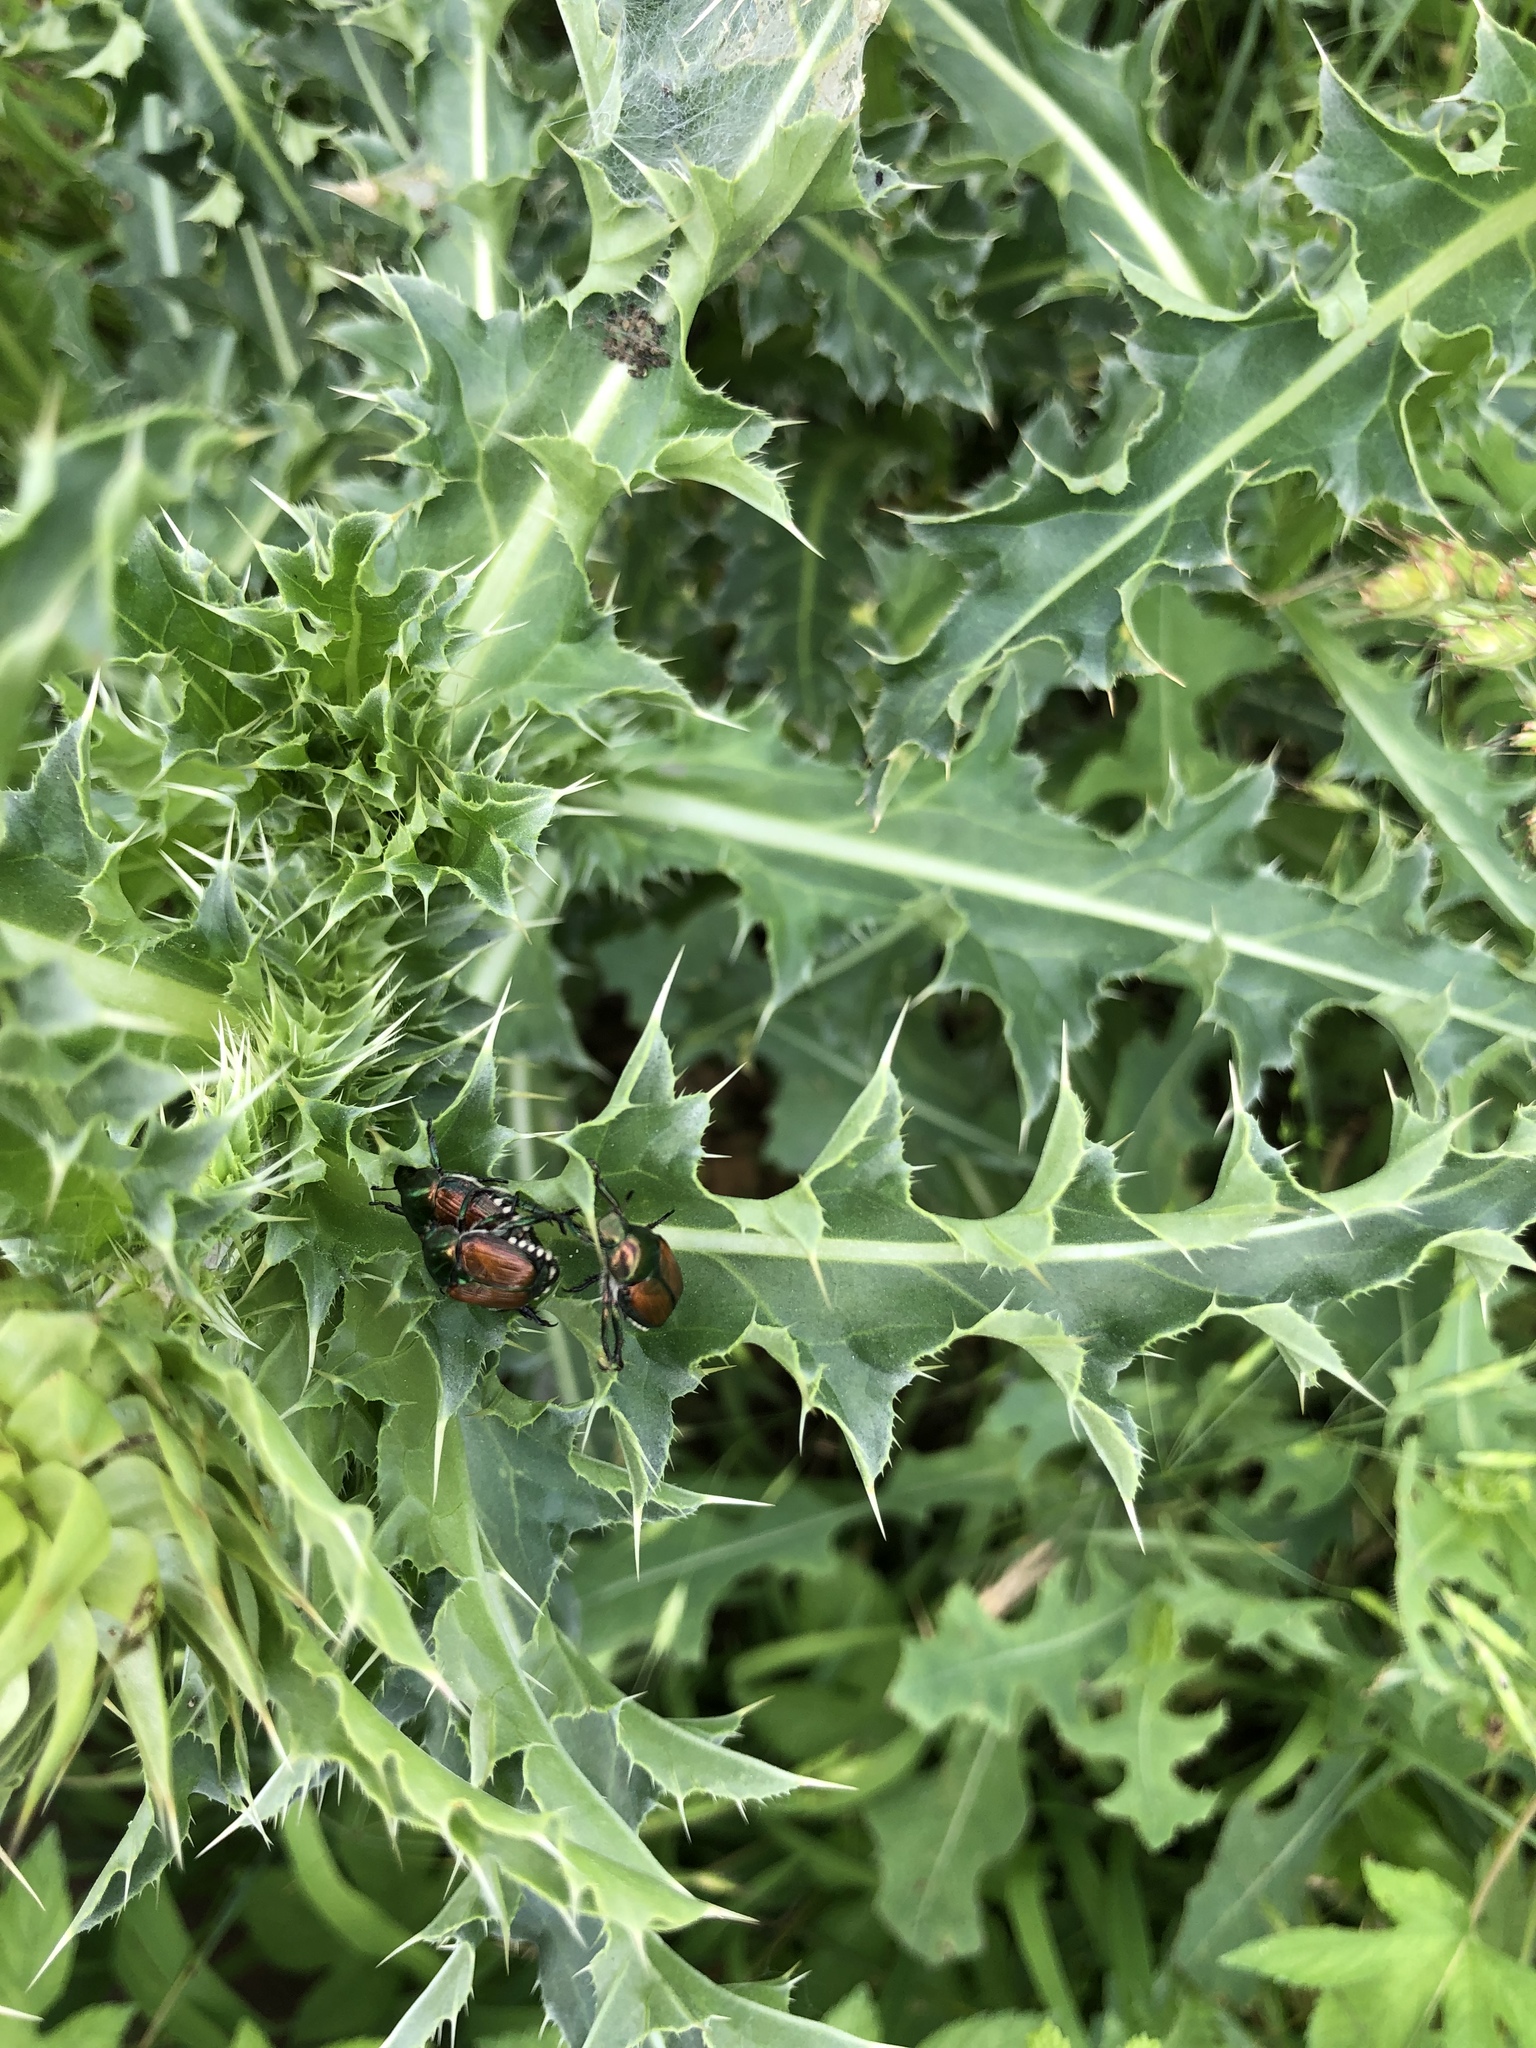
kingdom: Animalia
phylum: Arthropoda
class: Insecta
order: Coleoptera
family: Scarabaeidae
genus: Popillia
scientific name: Popillia japonica
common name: Japanese beetle
